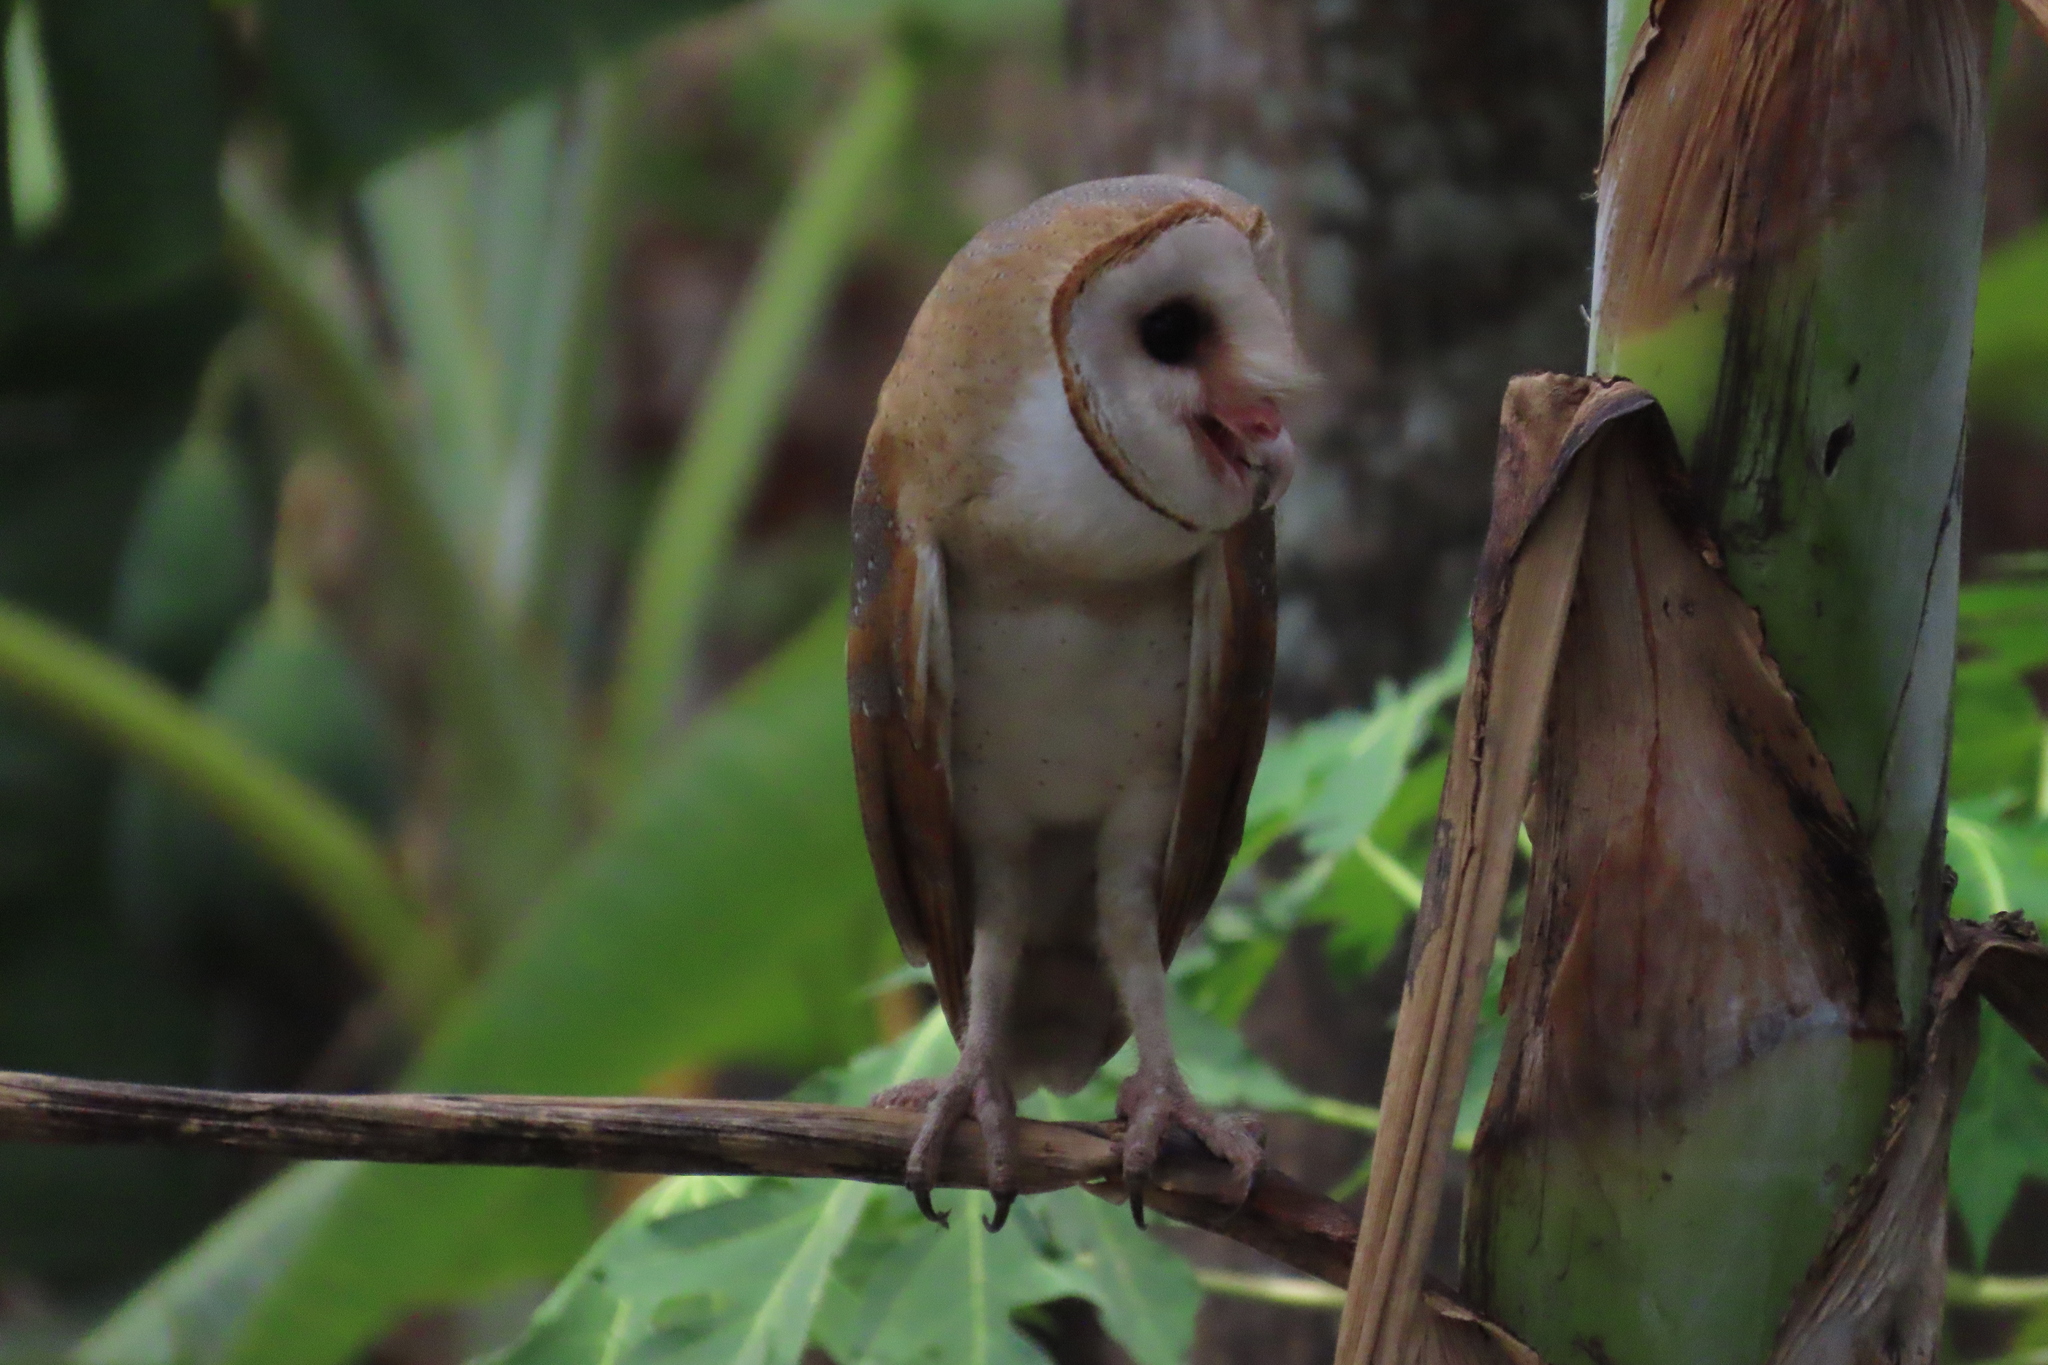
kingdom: Animalia
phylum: Chordata
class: Aves
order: Strigiformes
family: Tytonidae
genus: Tyto
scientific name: Tyto alba
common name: Barn owl
